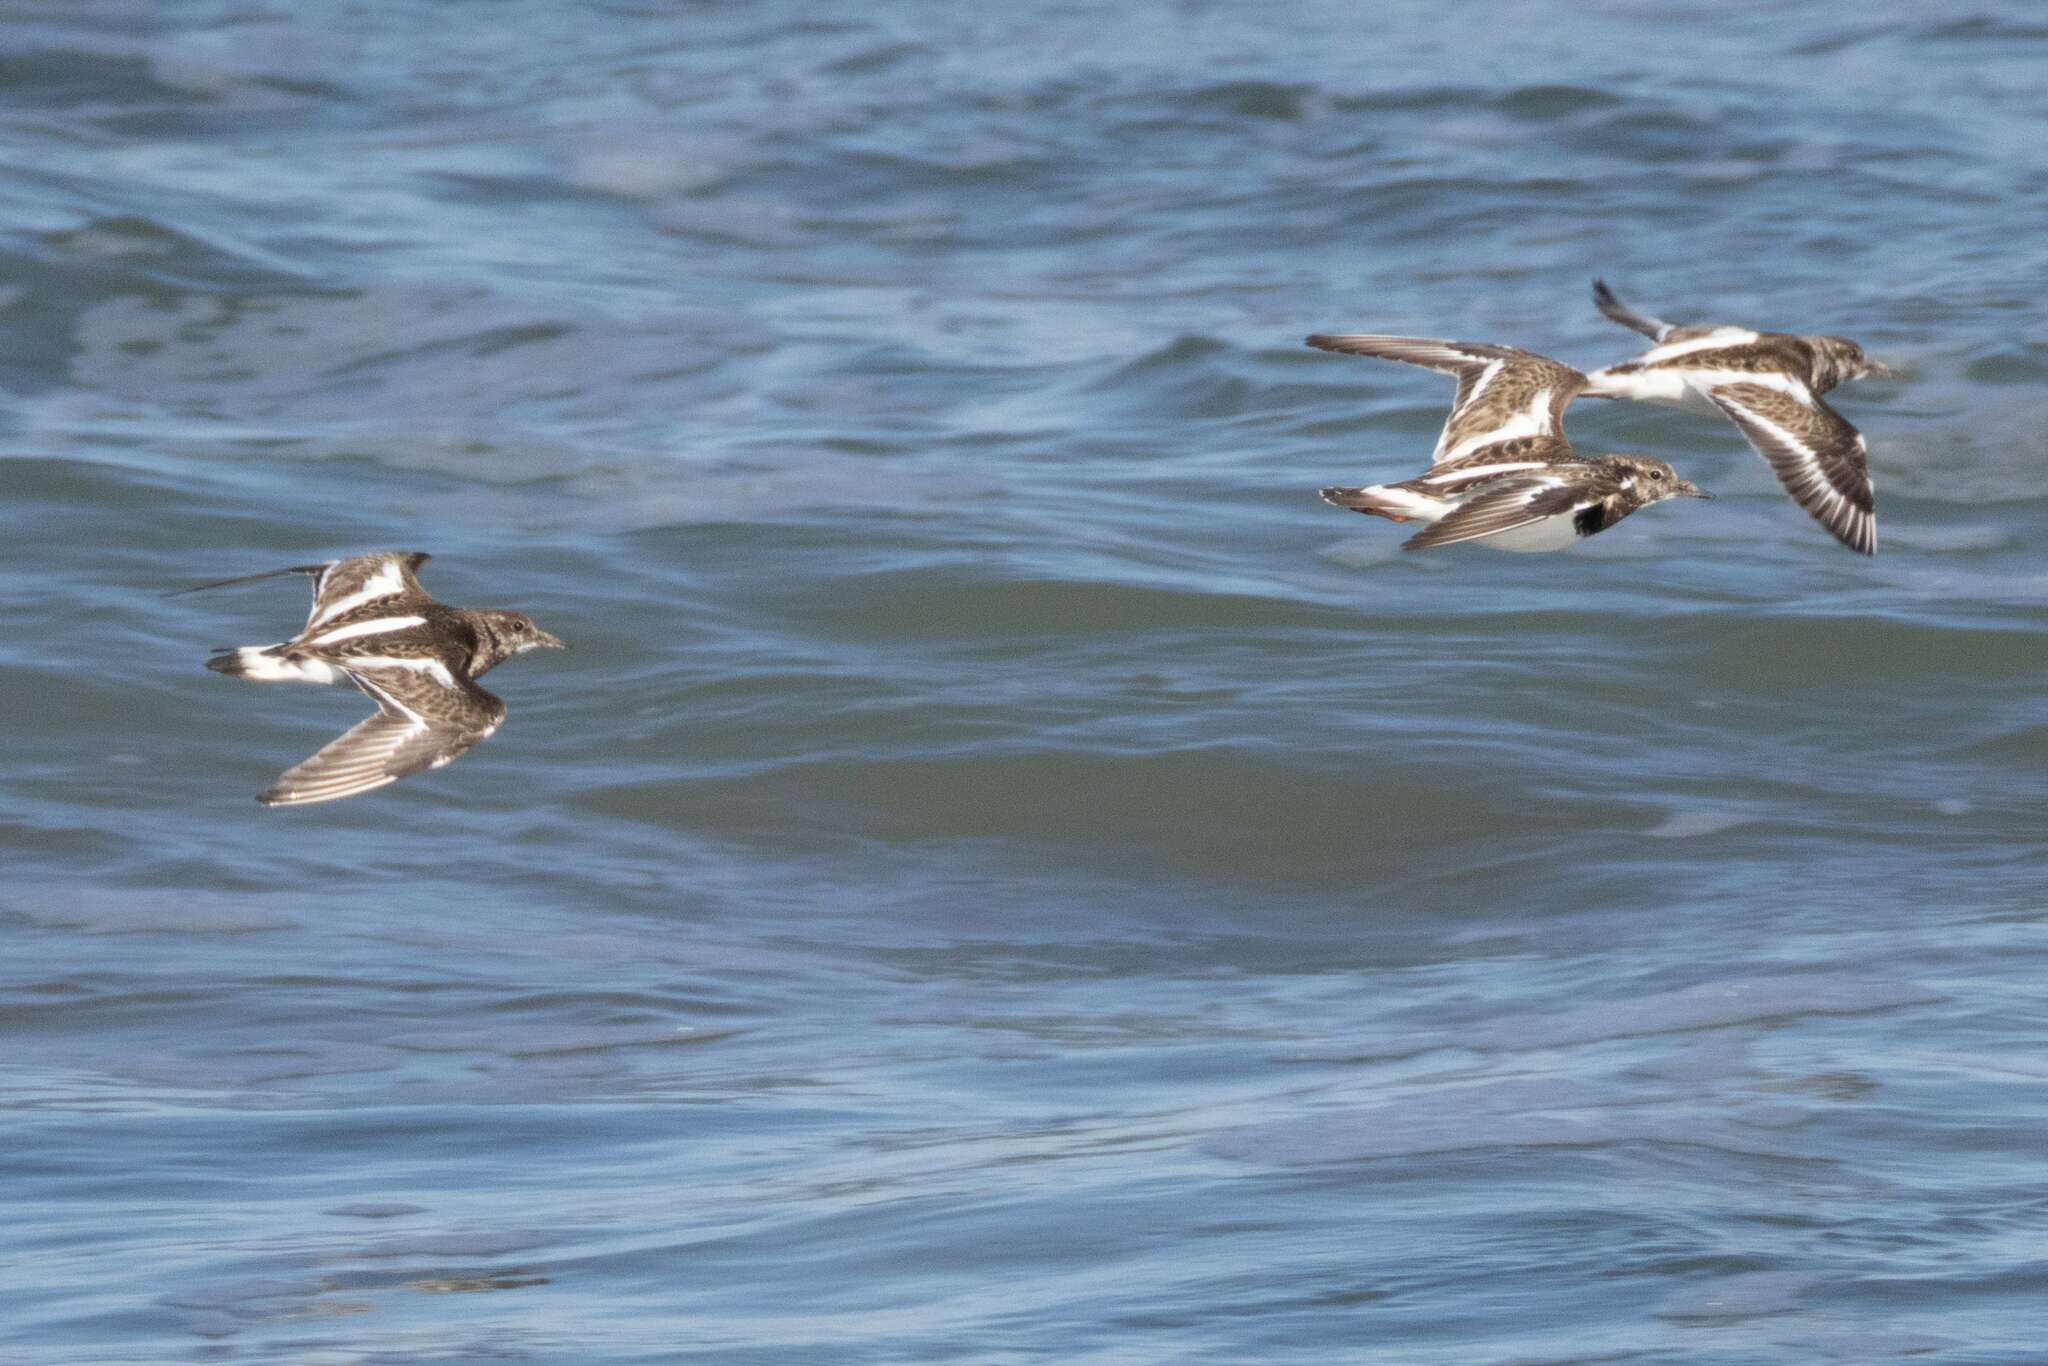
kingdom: Animalia
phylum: Chordata
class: Aves
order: Charadriiformes
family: Scolopacidae
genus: Arenaria
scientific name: Arenaria interpres
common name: Ruddy turnstone
